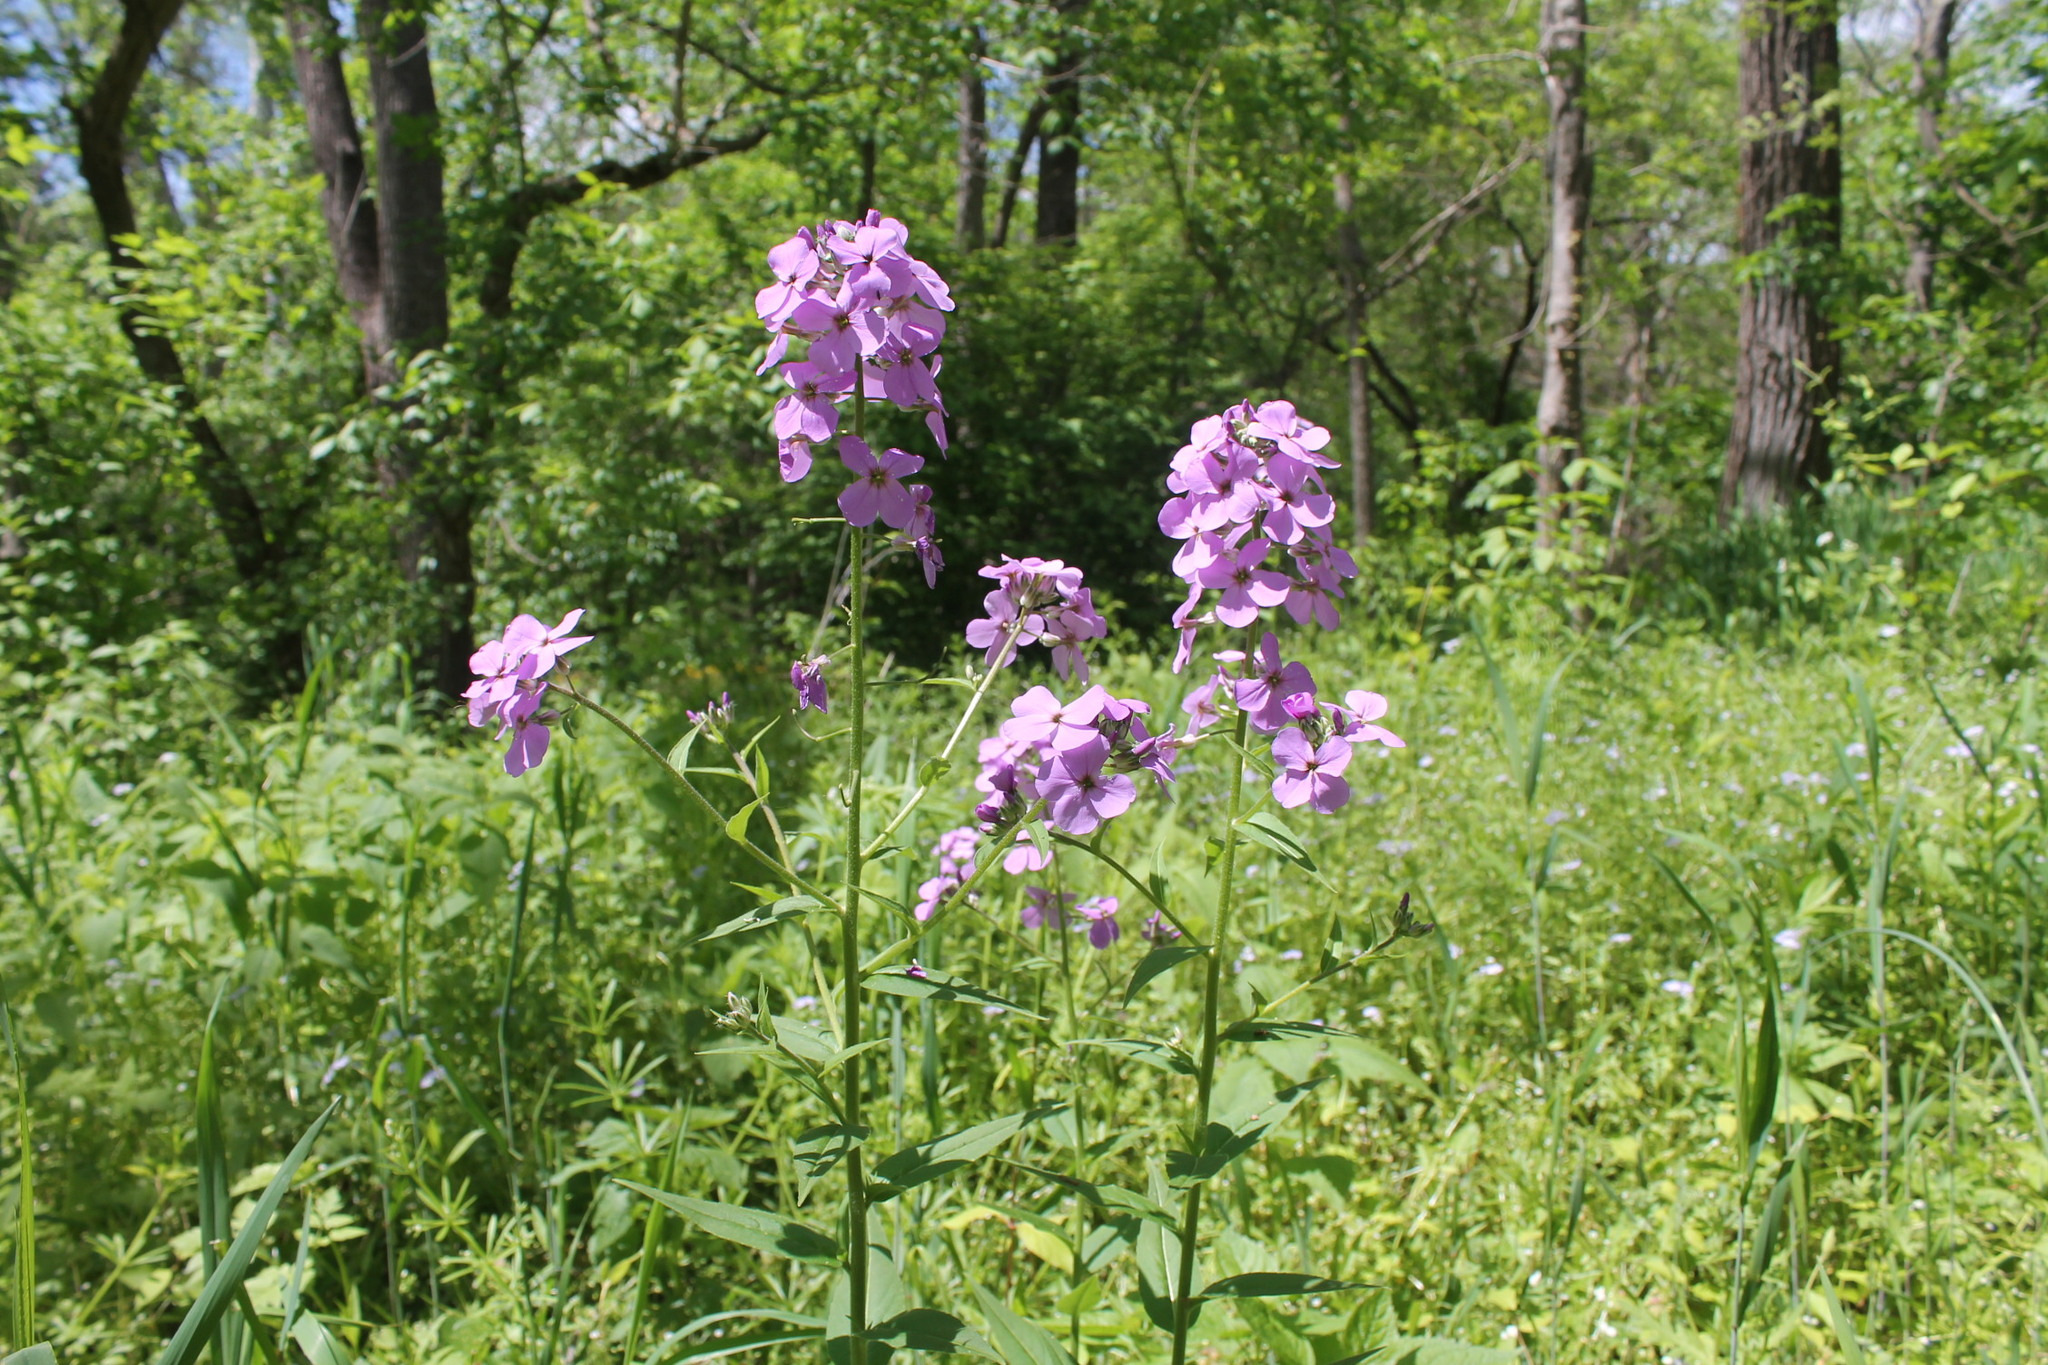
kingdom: Plantae
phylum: Tracheophyta
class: Magnoliopsida
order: Brassicales
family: Brassicaceae
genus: Hesperis
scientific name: Hesperis matronalis
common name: Dame's-violet
